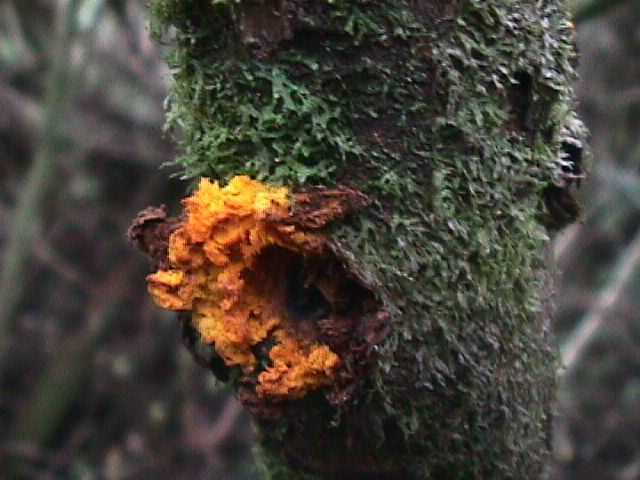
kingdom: Plantae
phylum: Tracheophyta
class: Magnoliopsida
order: Gentianales
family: Rubiaceae
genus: Coprosma
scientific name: Coprosma autumnalis
